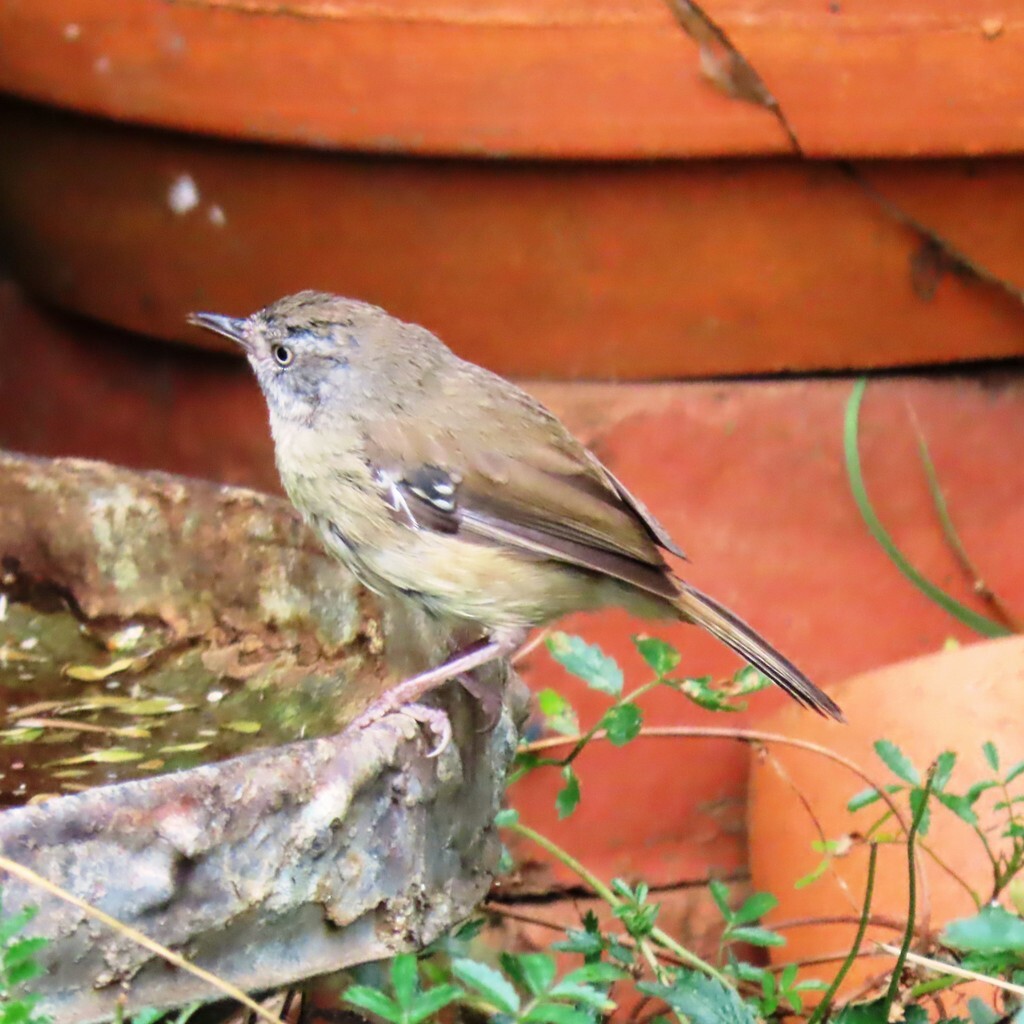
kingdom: Animalia
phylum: Chordata
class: Aves
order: Passeriformes
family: Acanthizidae
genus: Sericornis
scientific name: Sericornis frontalis
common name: White-browed scrubwren
